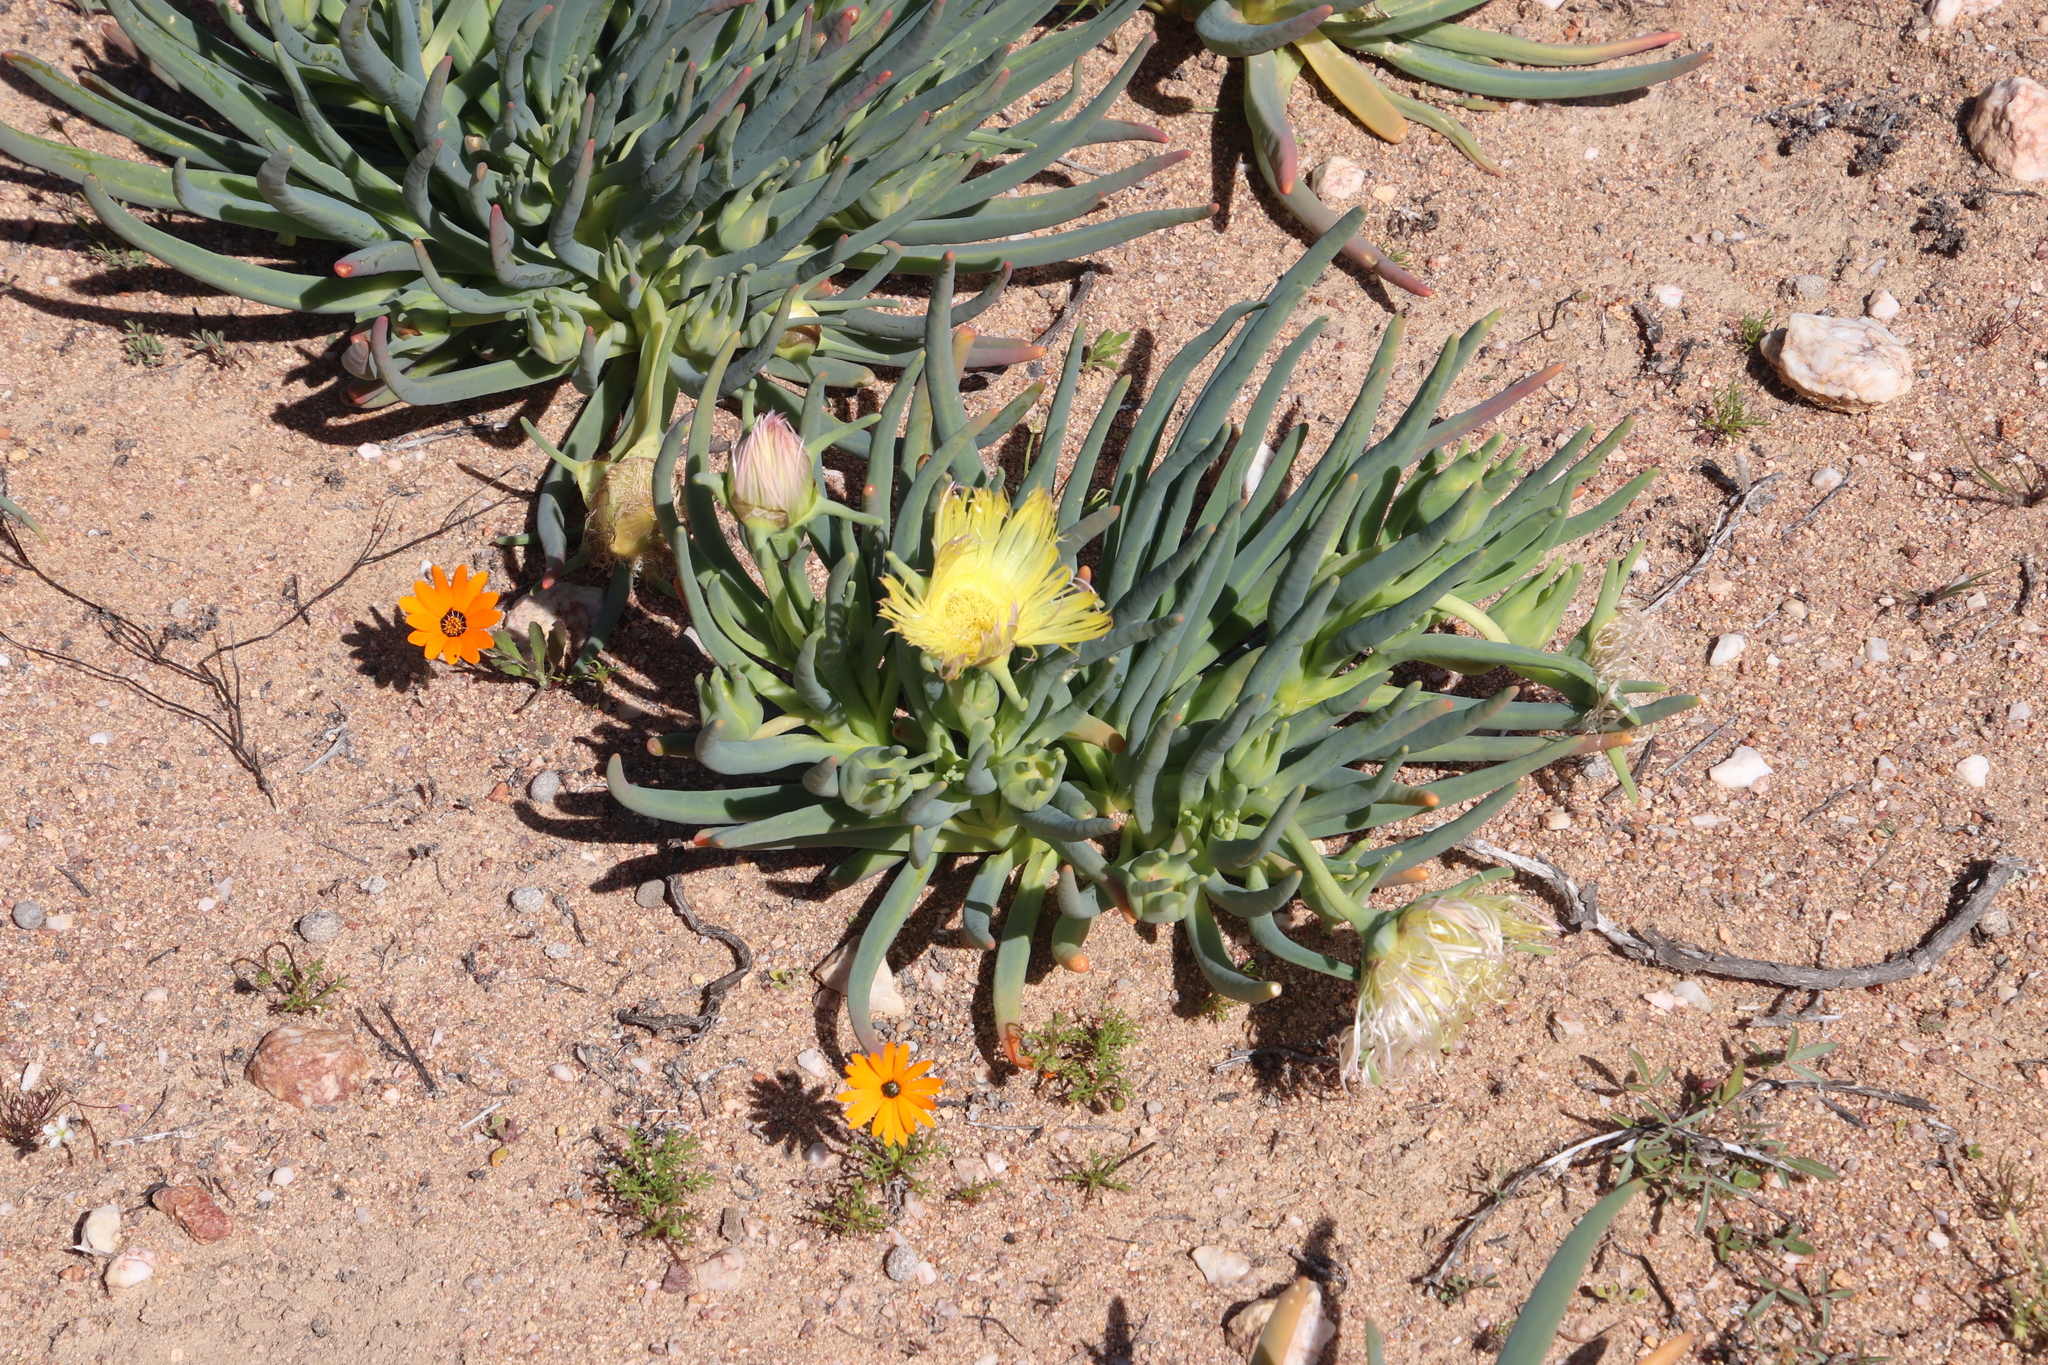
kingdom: Plantae
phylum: Tracheophyta
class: Magnoliopsida
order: Caryophyllales
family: Aizoaceae
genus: Conicosia
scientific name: Conicosia pugioniformis
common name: Narrow-leaved iceplant
